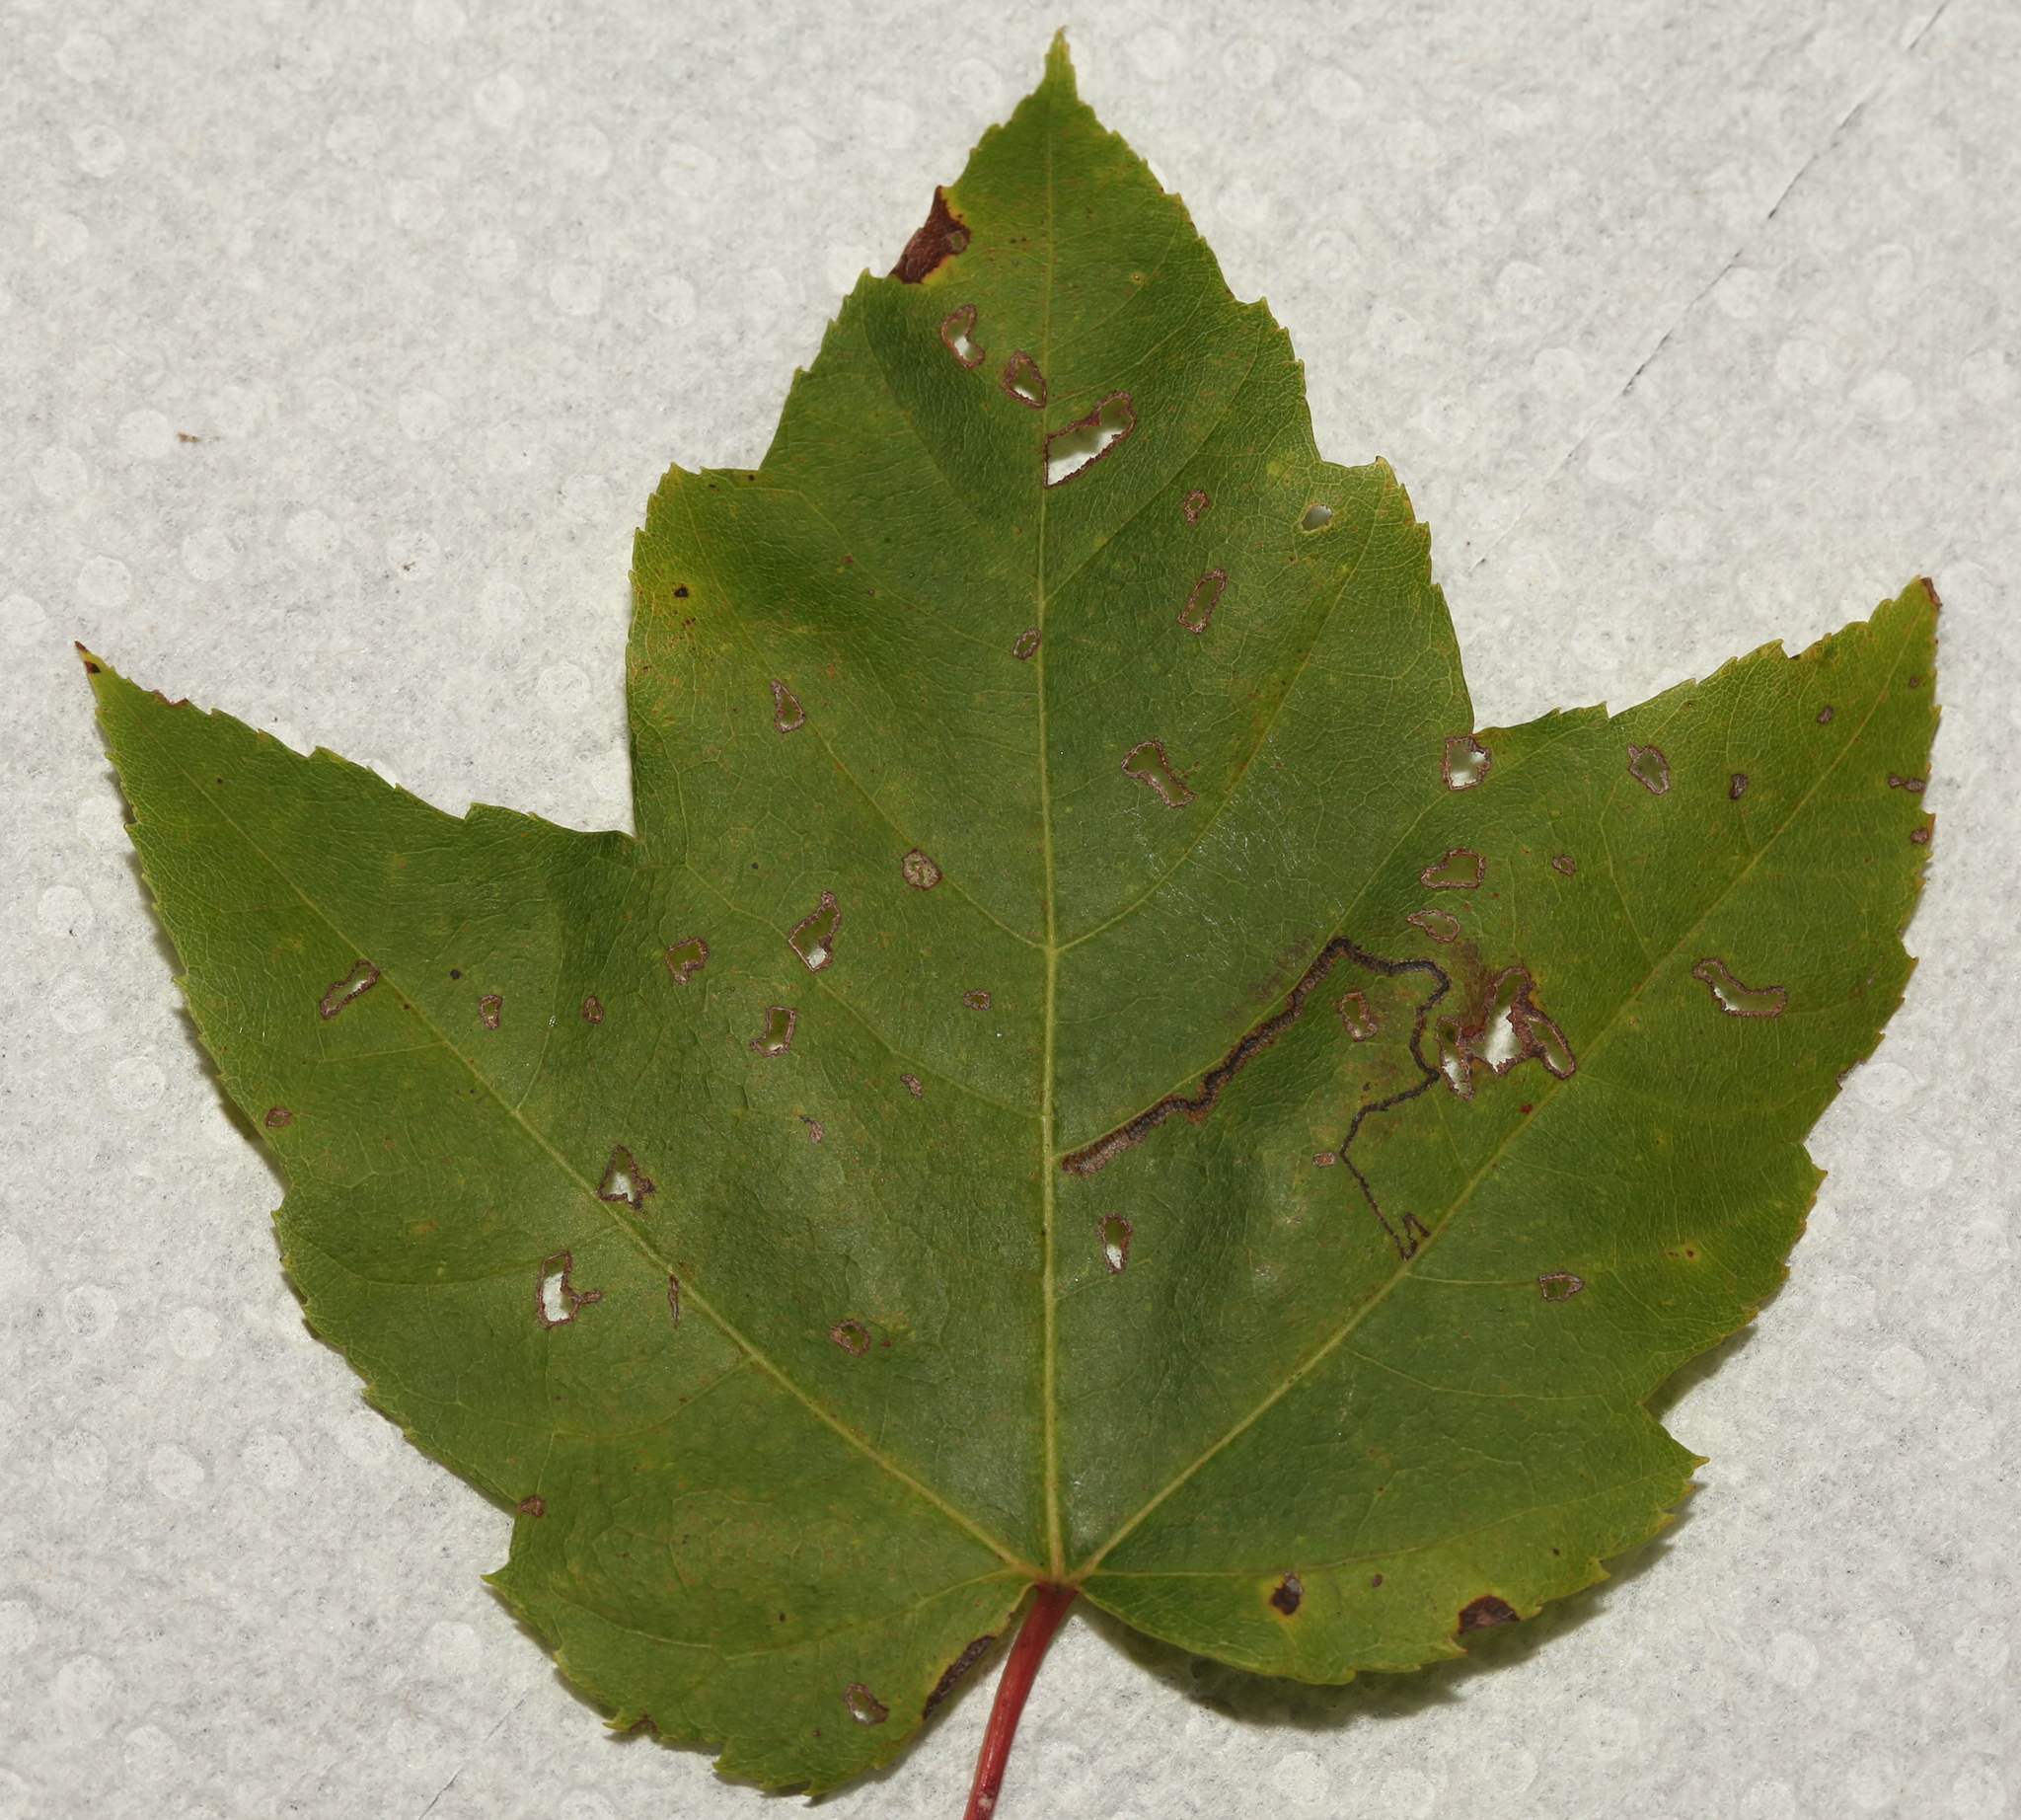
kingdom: Animalia
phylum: Arthropoda
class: Insecta
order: Lepidoptera
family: Nepticulidae
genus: Glaucolepis
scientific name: Glaucolepis saccharella
